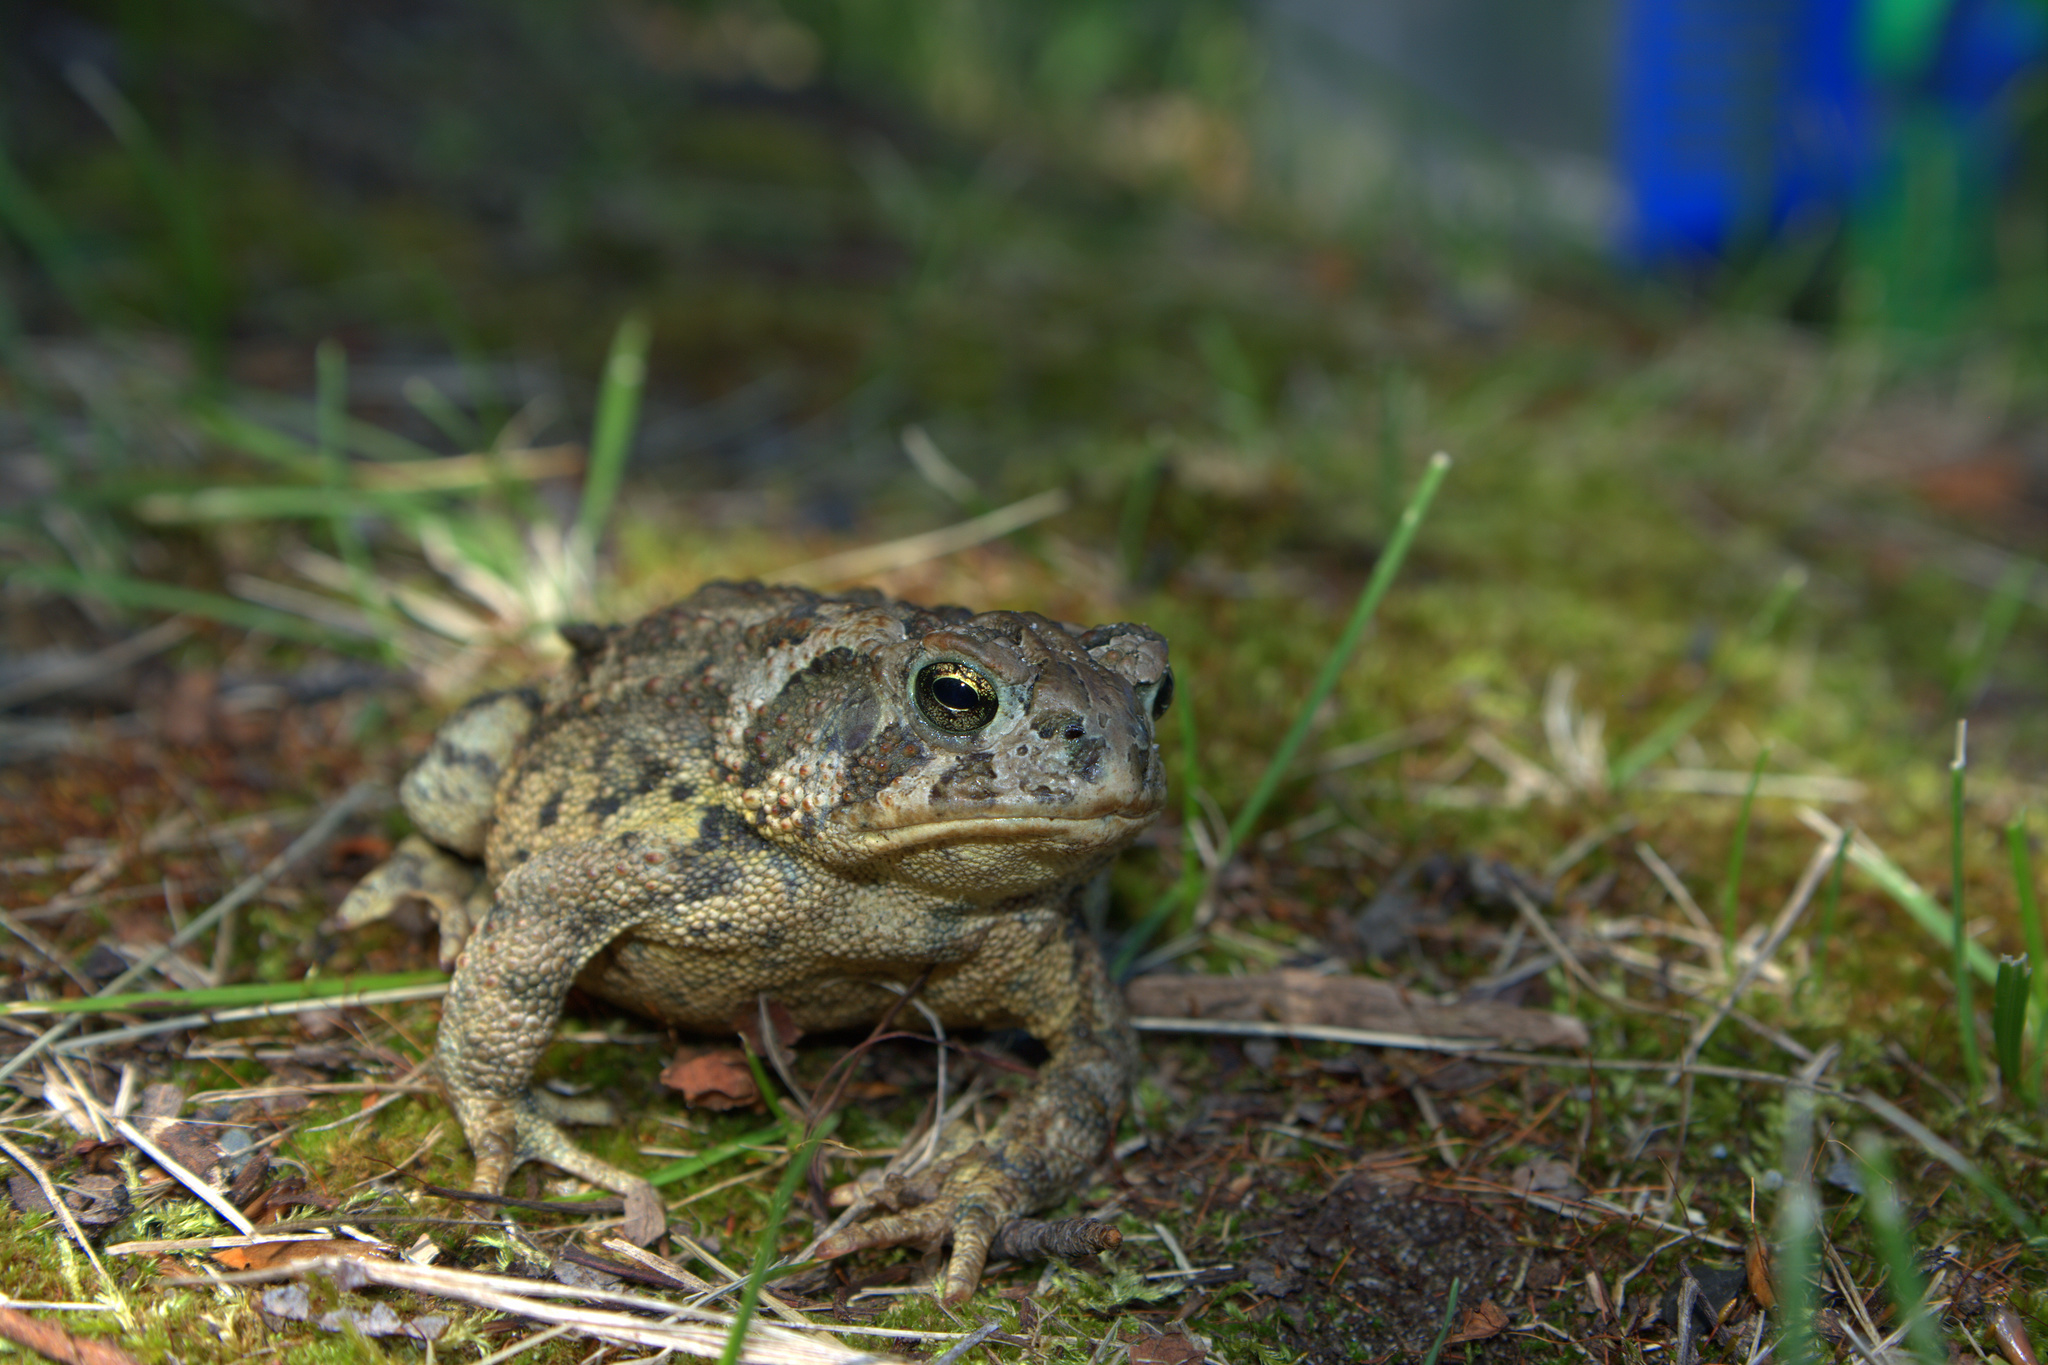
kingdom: Animalia
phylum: Chordata
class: Amphibia
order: Anura
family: Bufonidae
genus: Anaxyrus
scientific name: Anaxyrus hemiophrys
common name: Canadian toad
